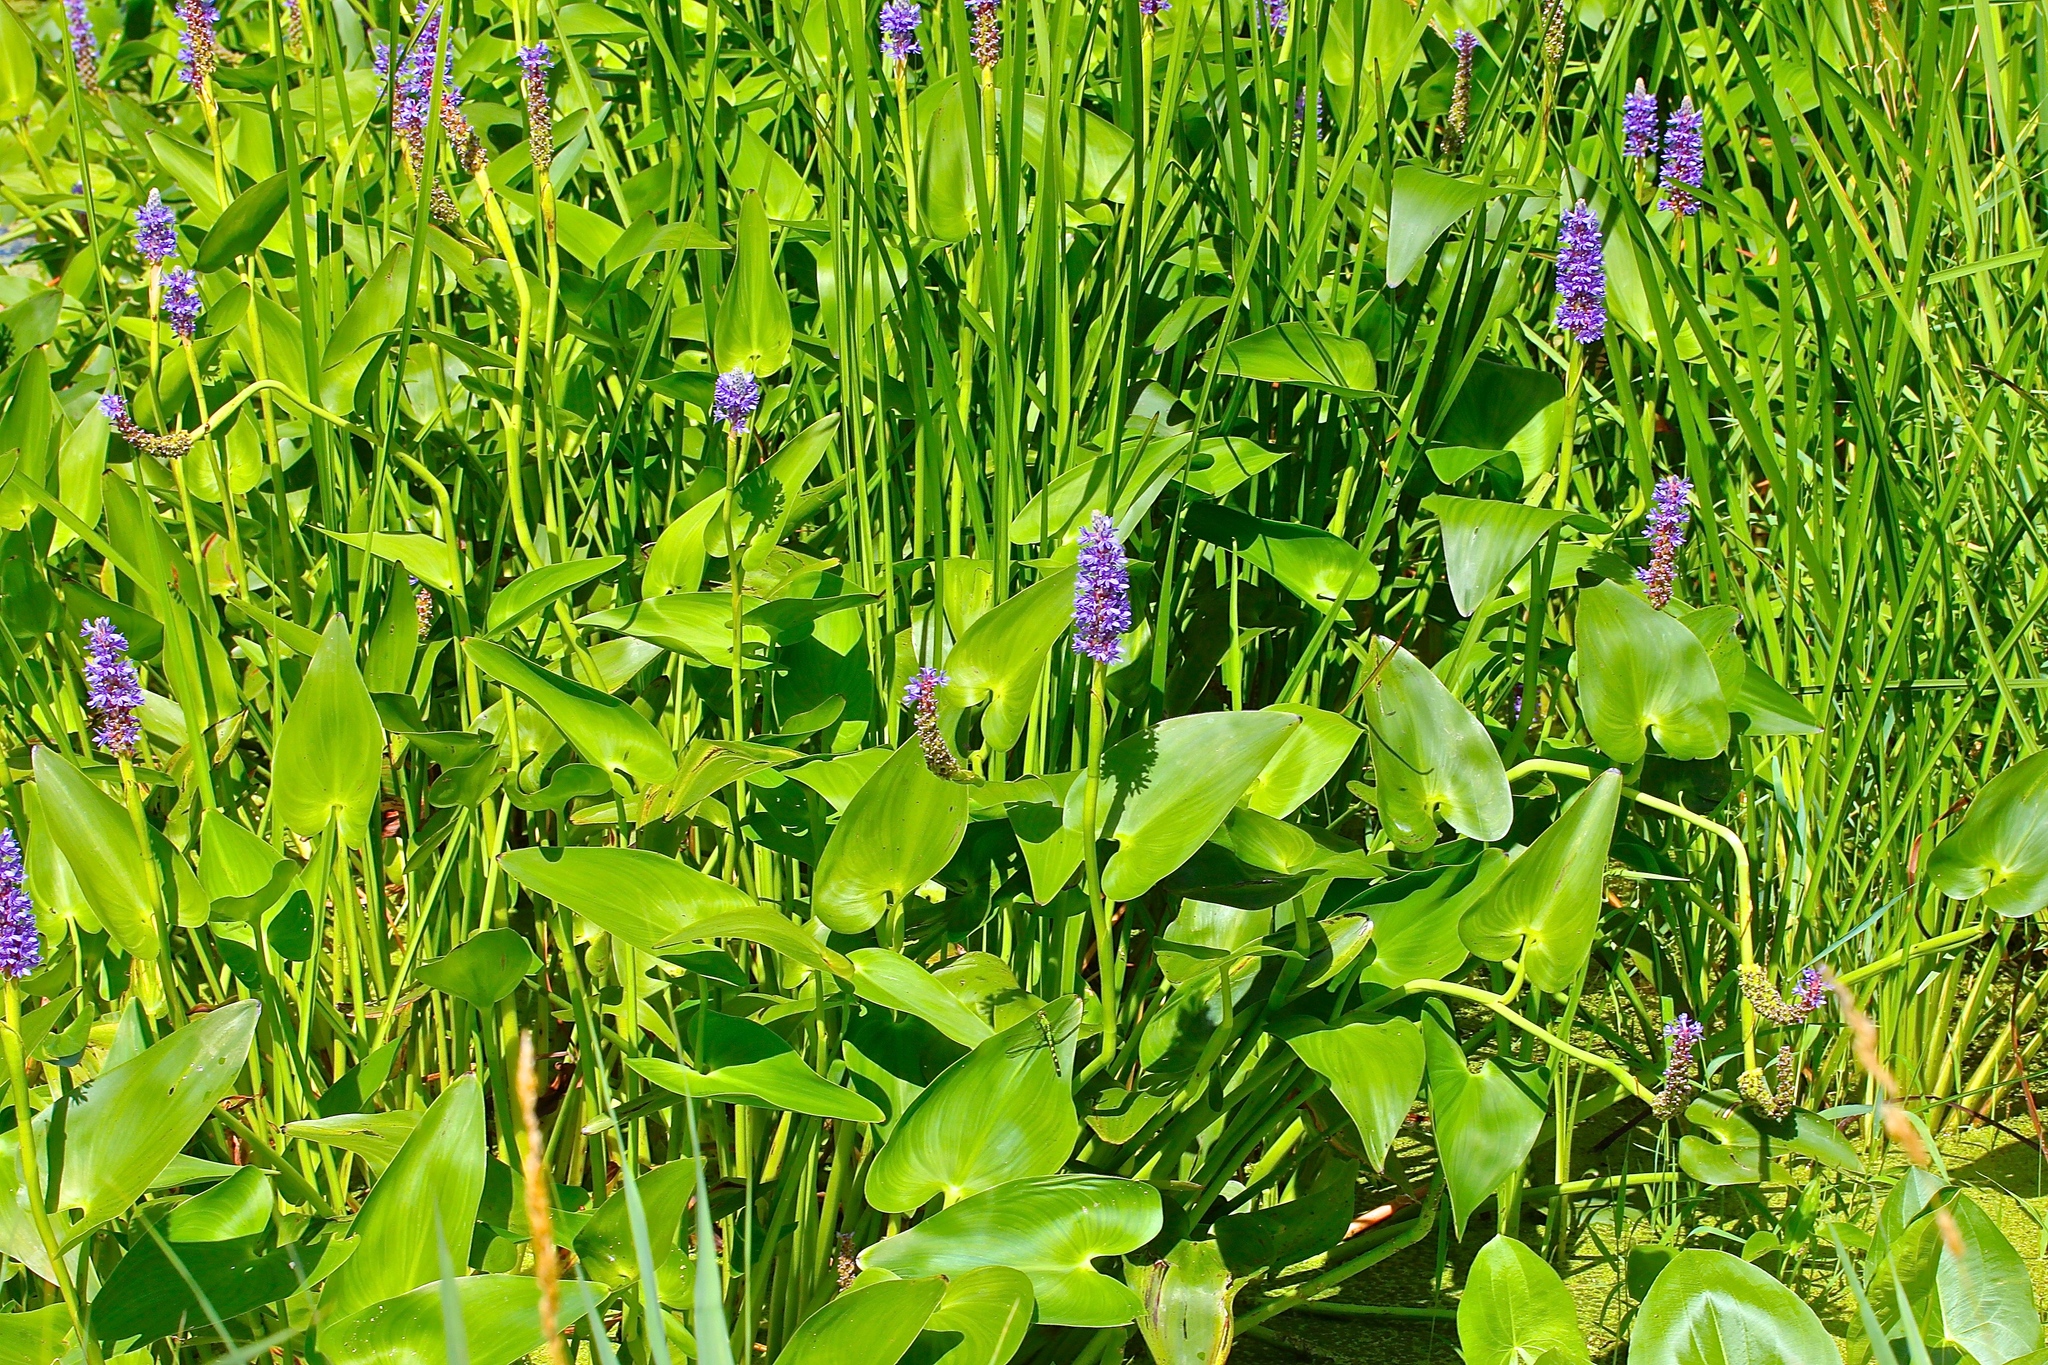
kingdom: Plantae
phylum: Tracheophyta
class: Liliopsida
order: Commelinales
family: Pontederiaceae
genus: Pontederia
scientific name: Pontederia cordata
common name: Pickerelweed
